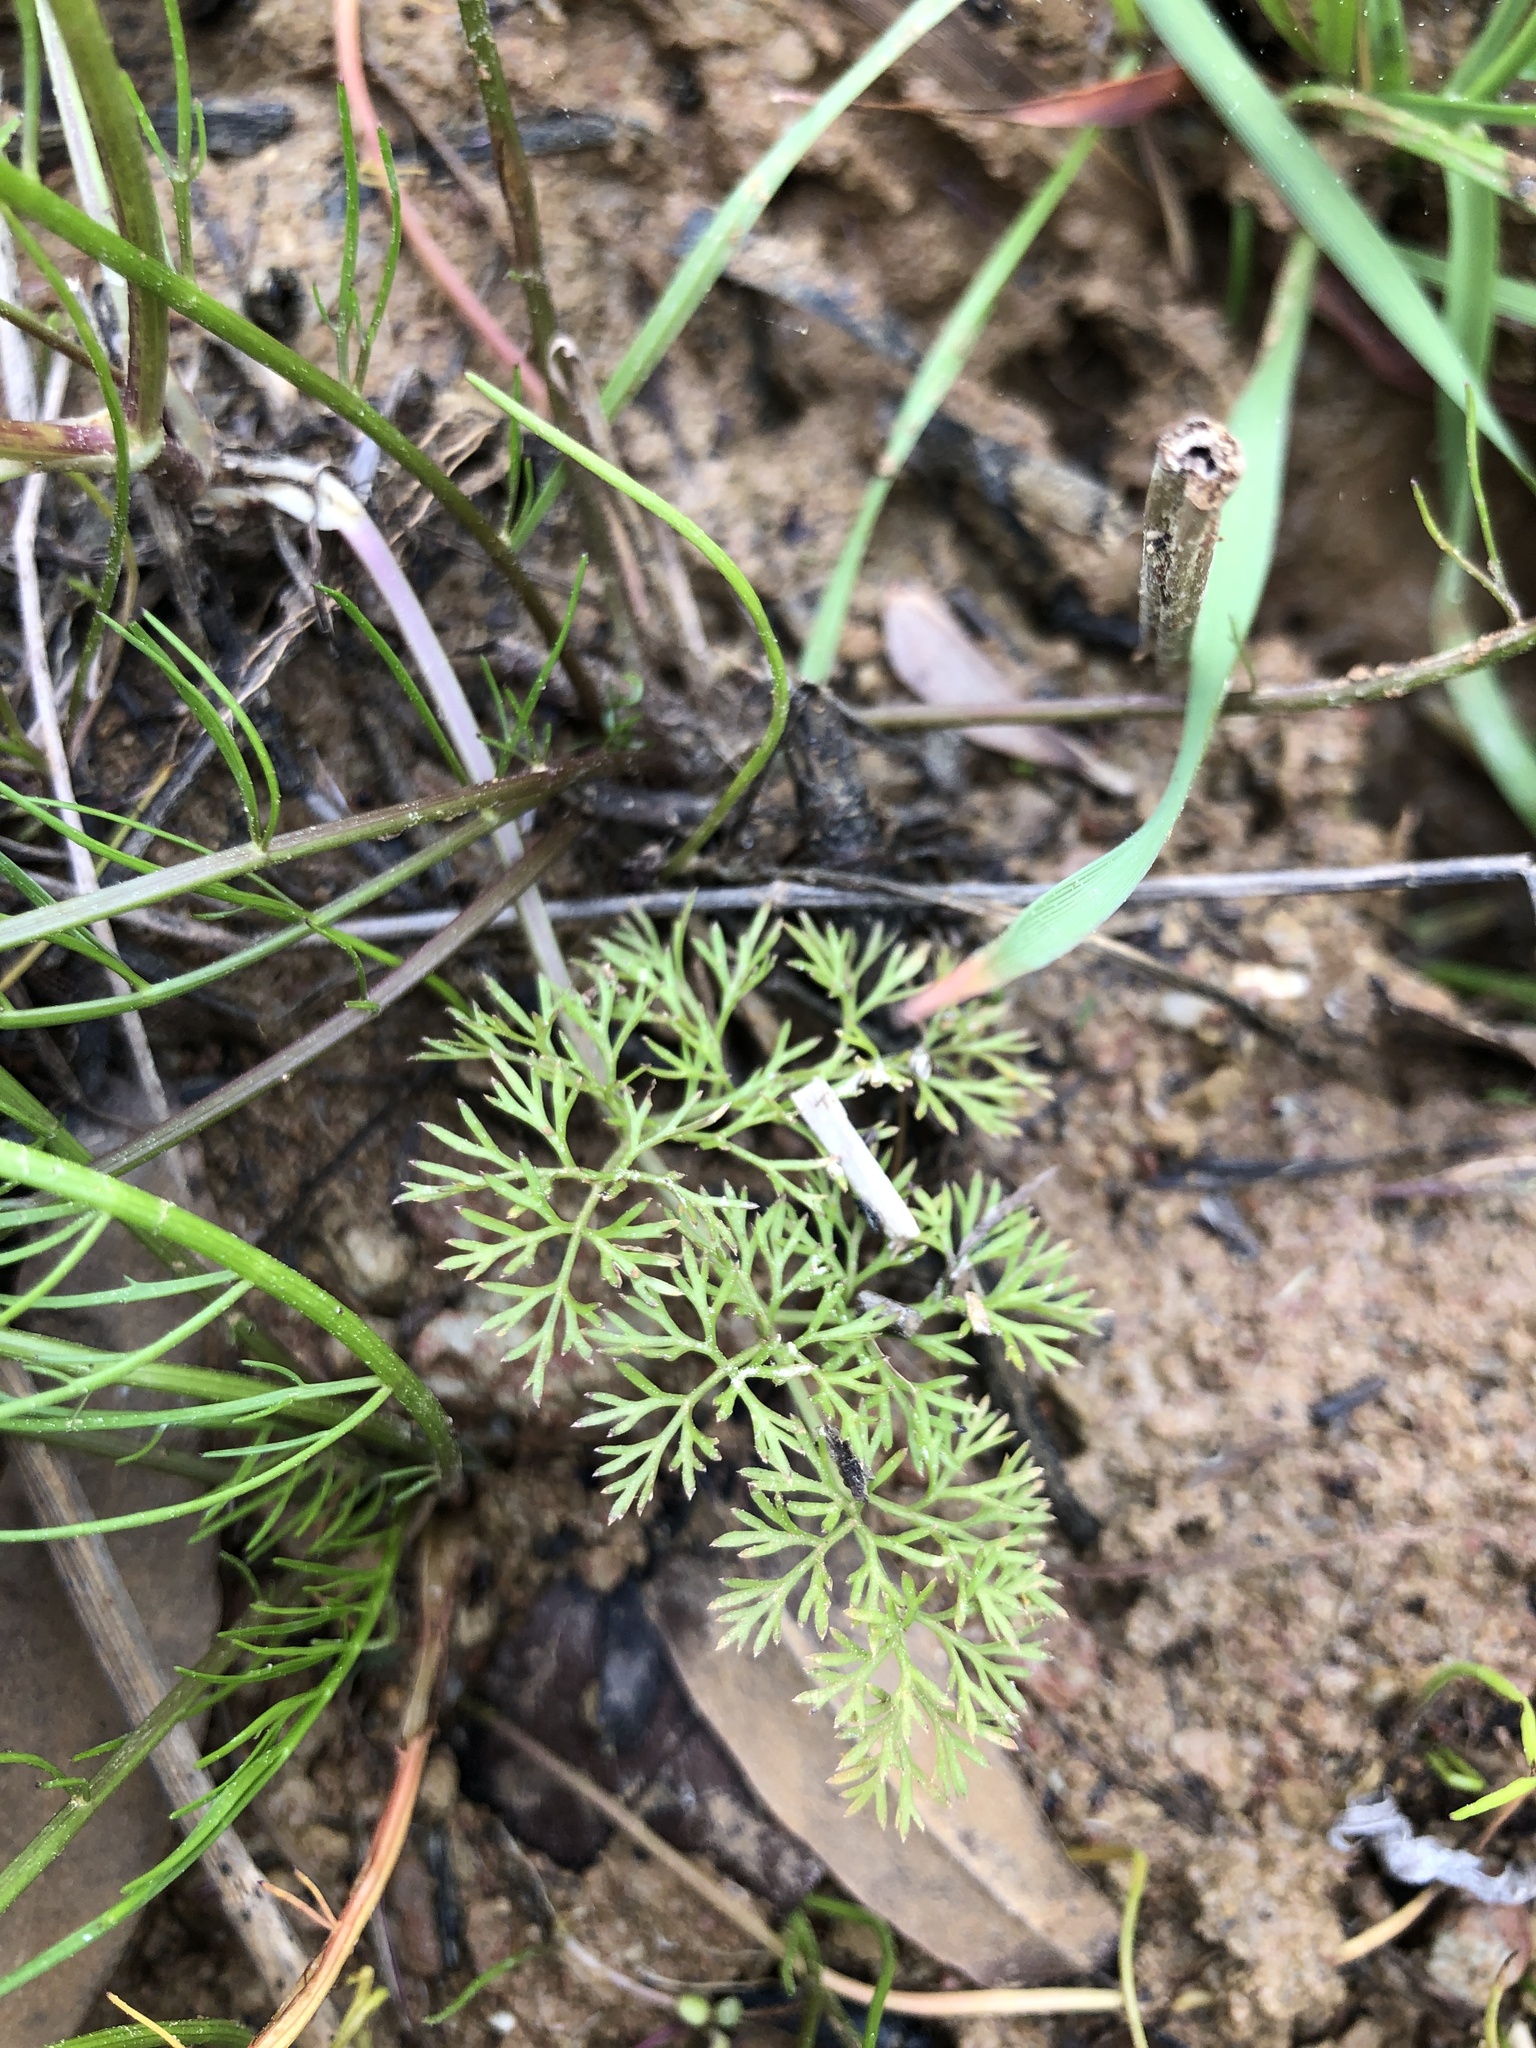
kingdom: Plantae
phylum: Tracheophyta
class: Magnoliopsida
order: Apiales
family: Apiaceae
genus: Cyclospermum
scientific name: Cyclospermum leptophyllum
